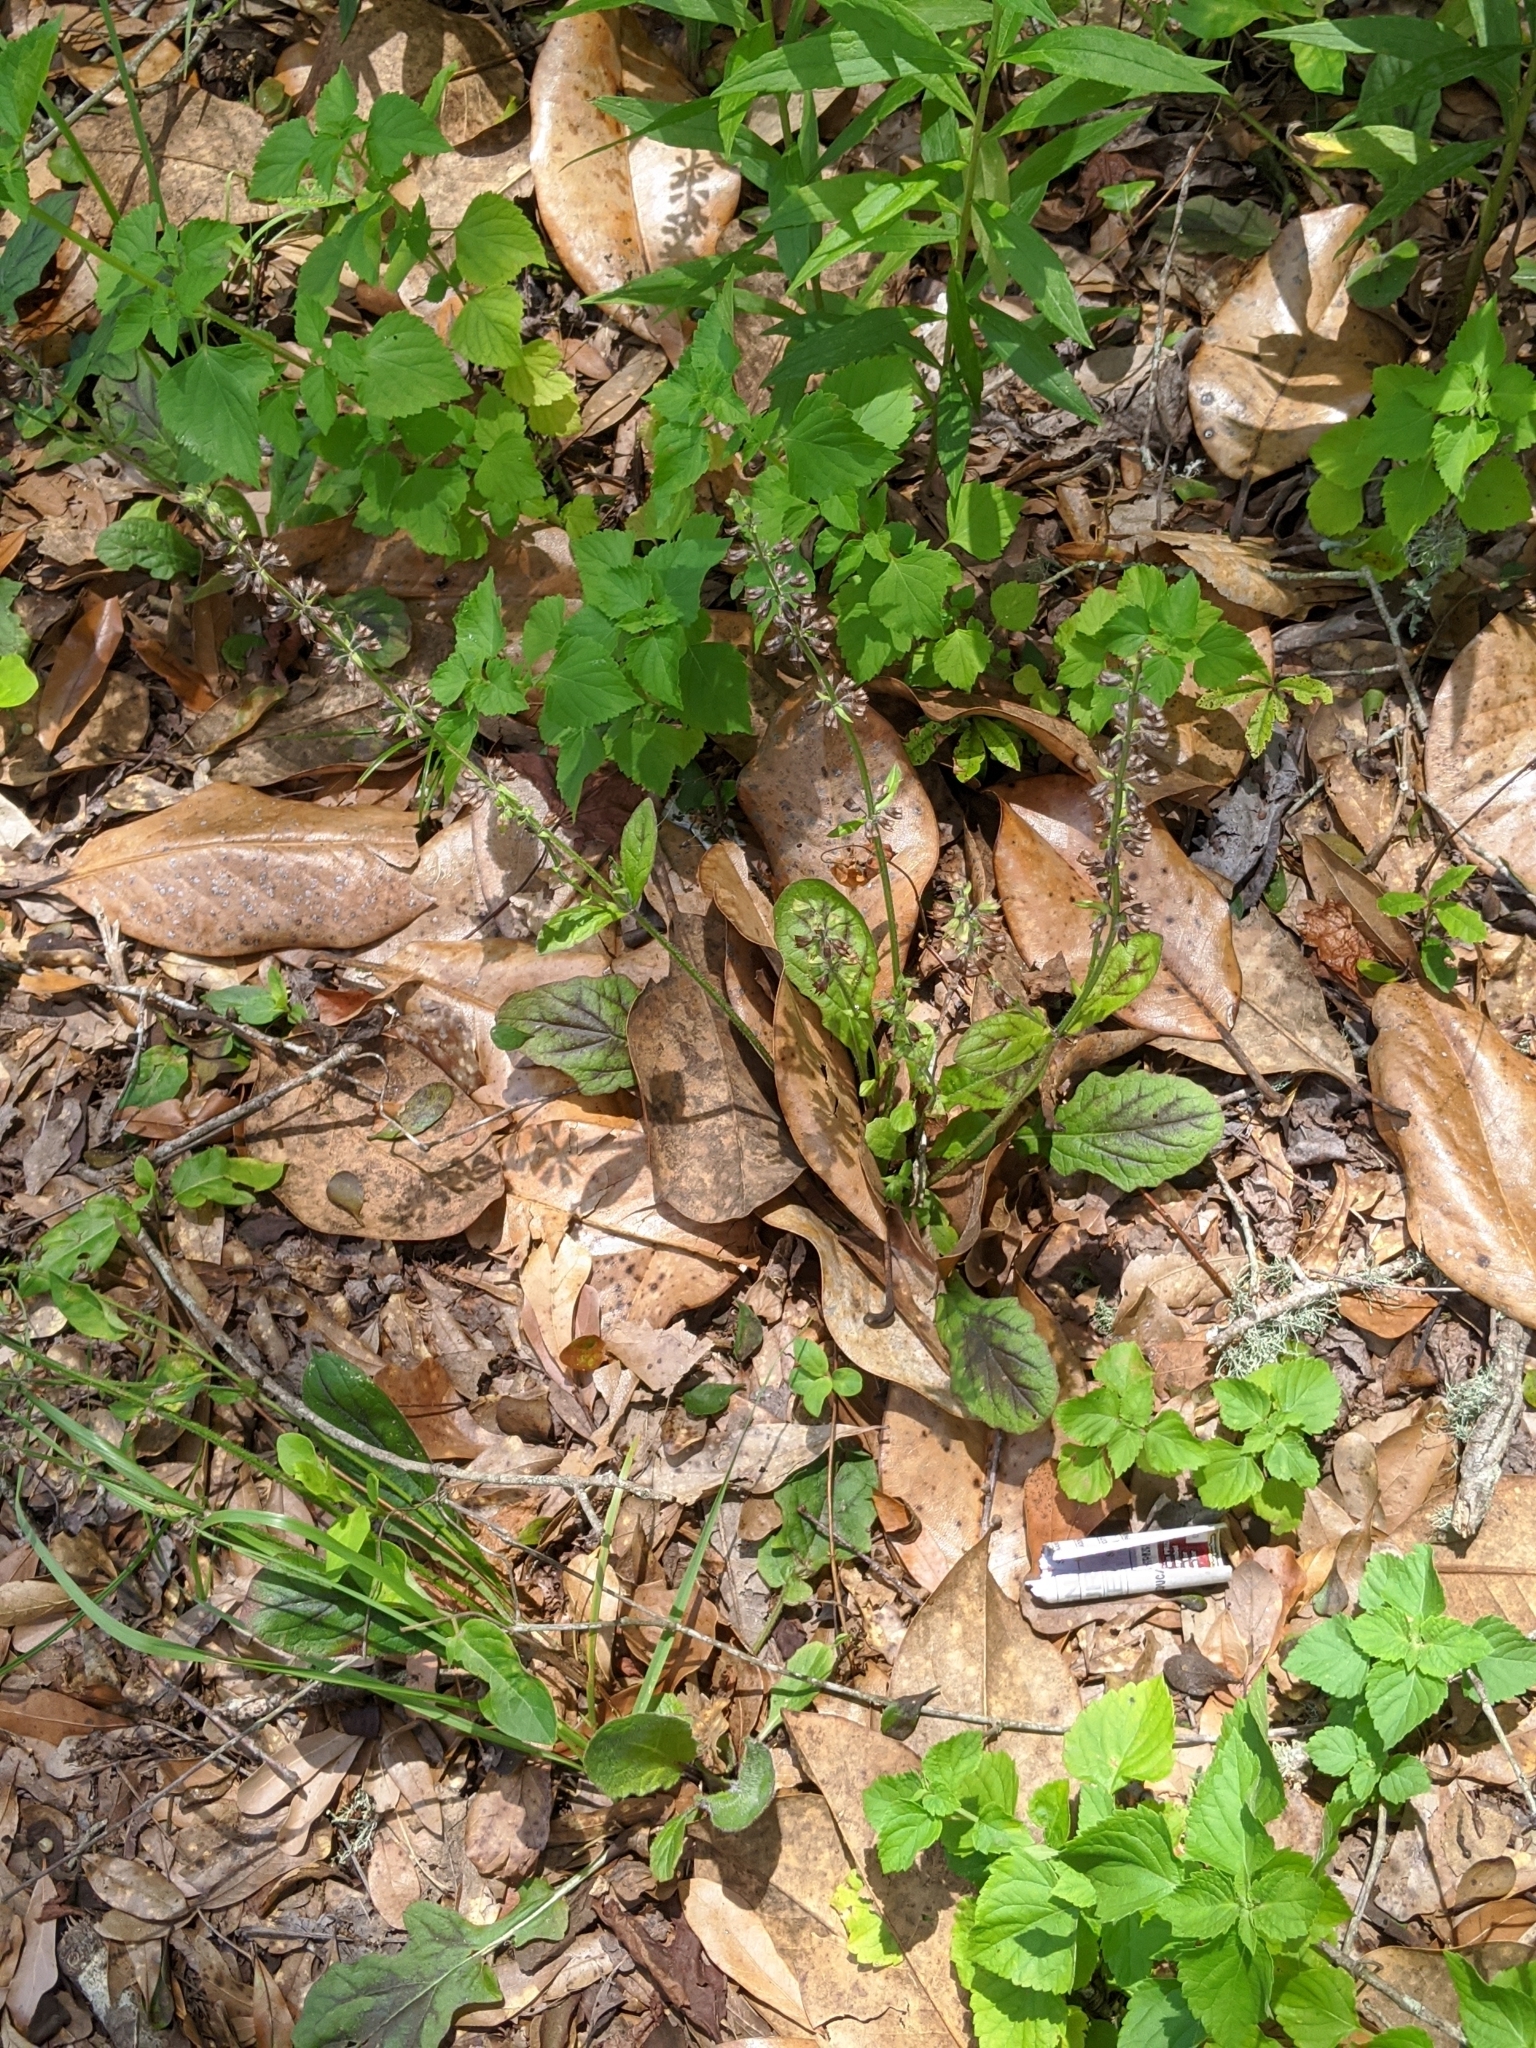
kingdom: Plantae
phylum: Tracheophyta
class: Magnoliopsida
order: Lamiales
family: Lamiaceae
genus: Salvia
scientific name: Salvia lyrata
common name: Cancerweed
